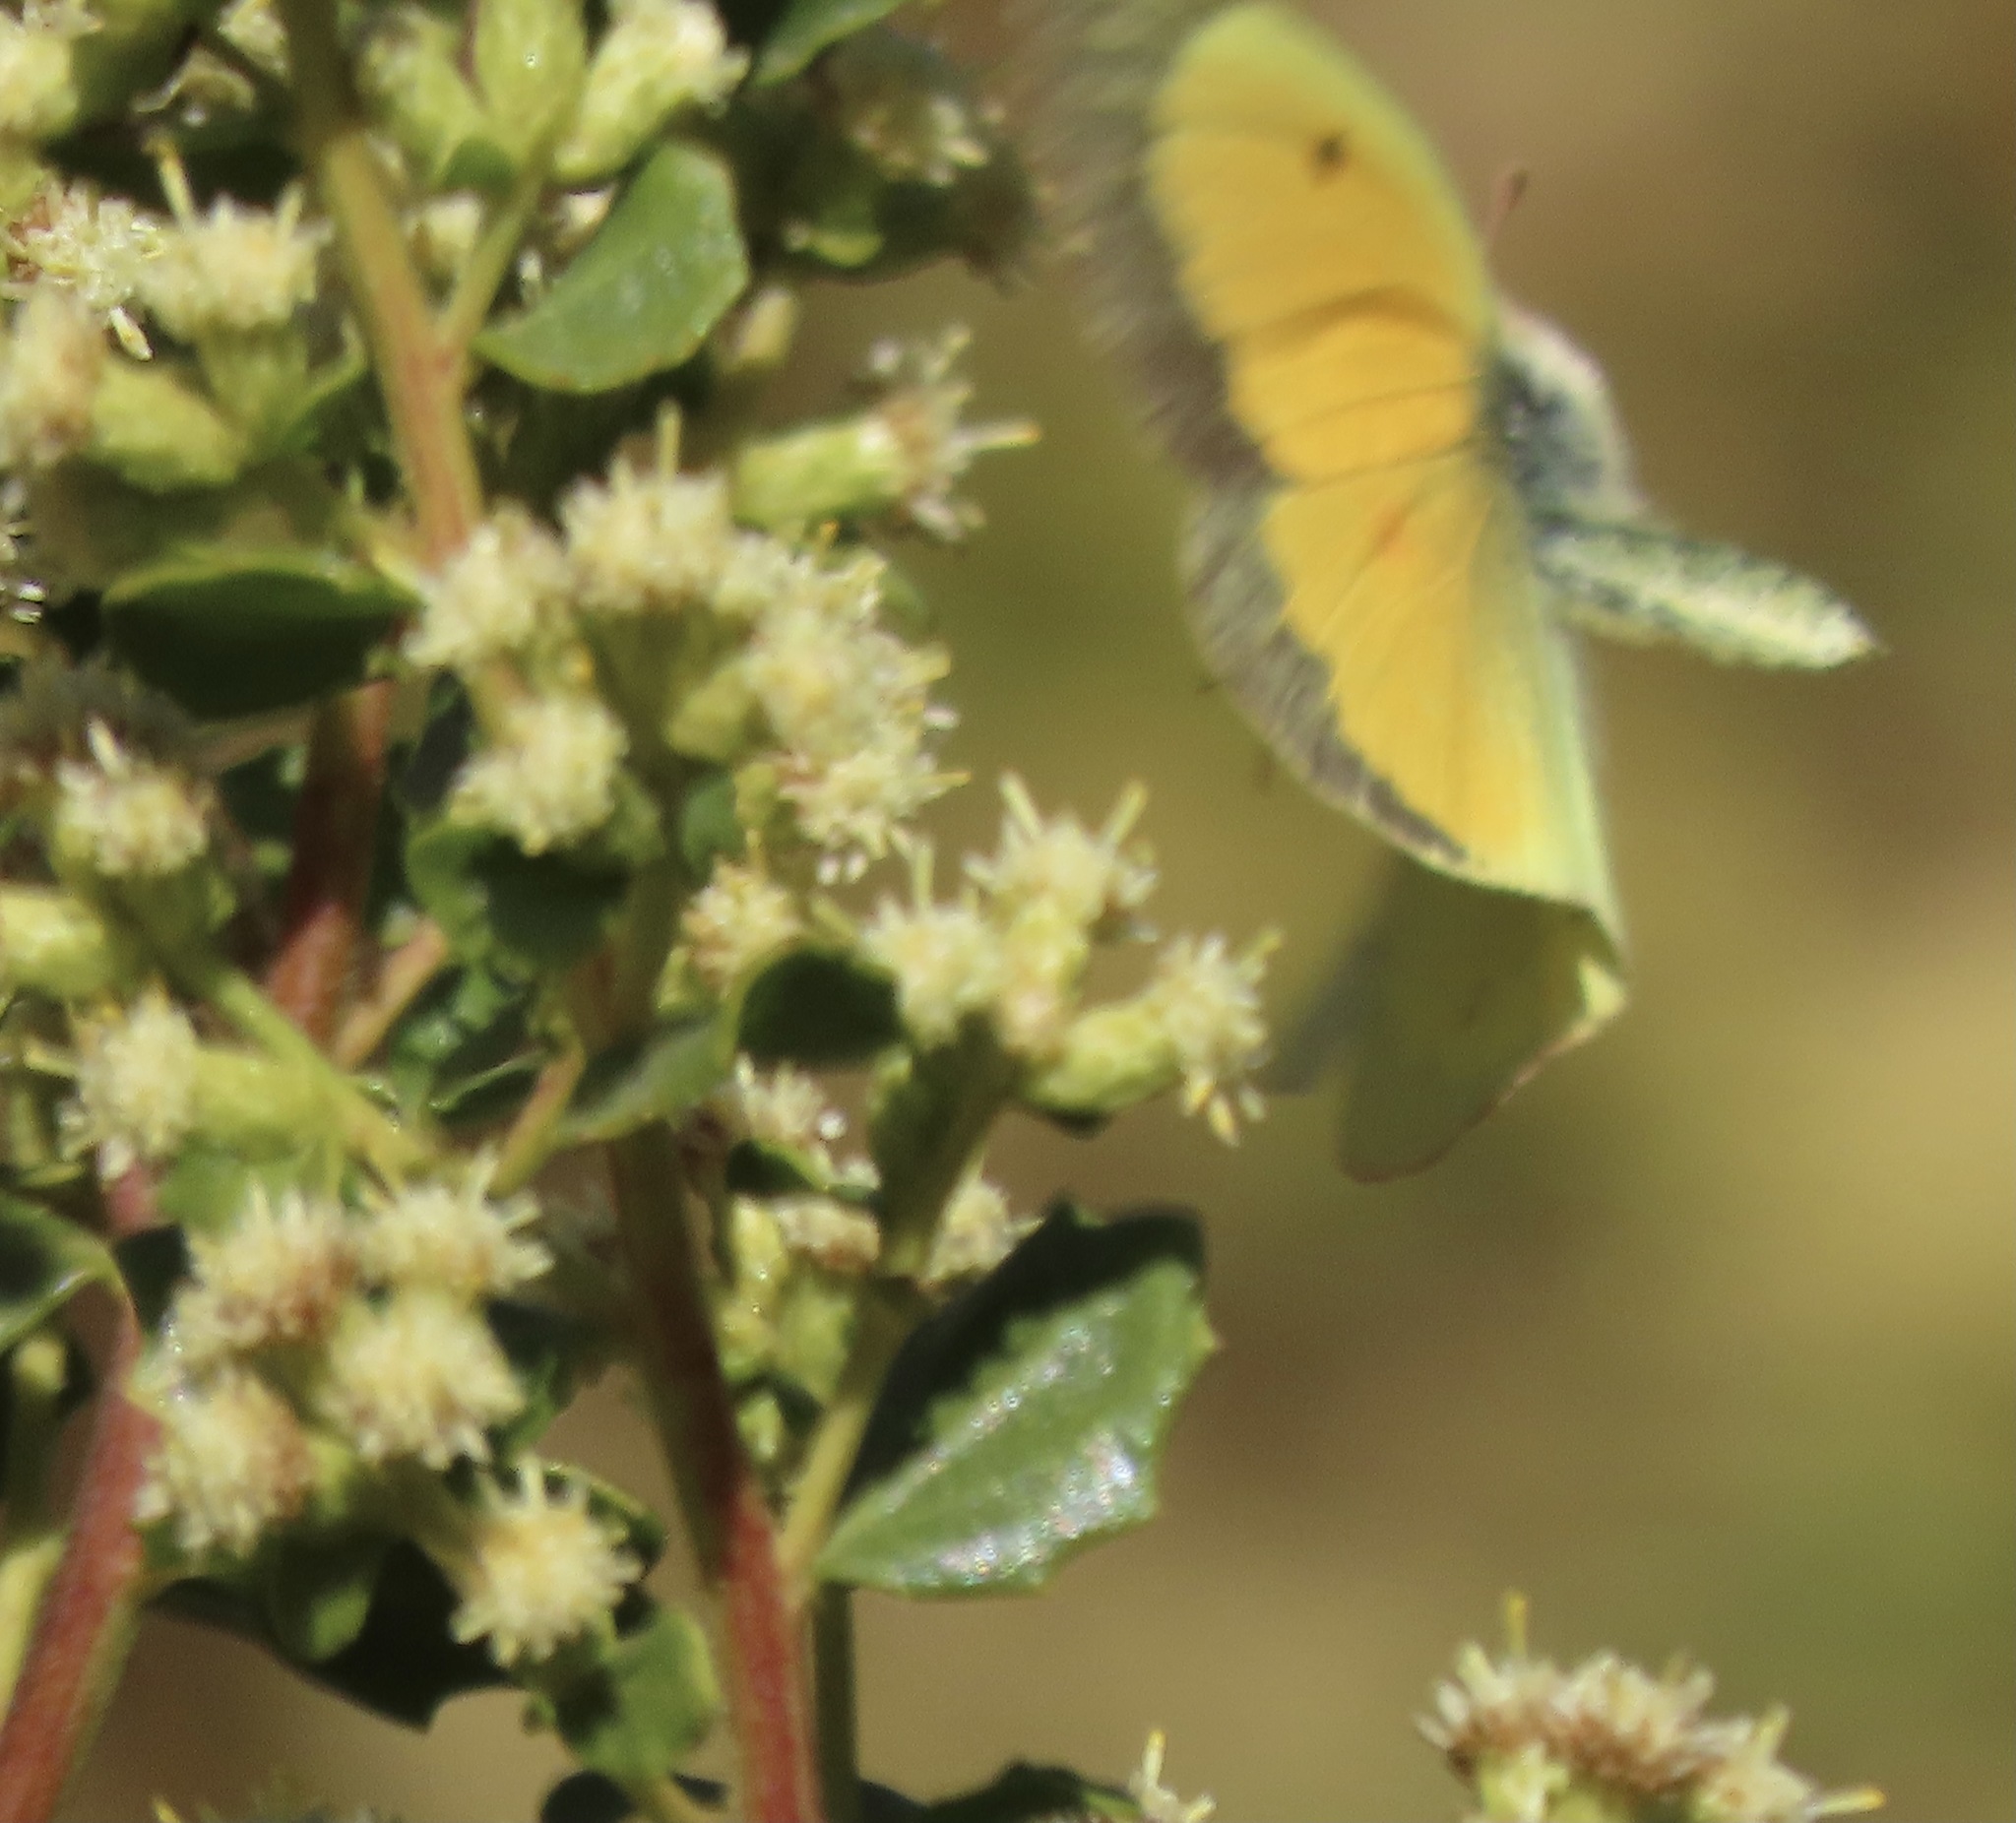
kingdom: Animalia
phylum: Arthropoda
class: Insecta
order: Lepidoptera
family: Pieridae
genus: Colias
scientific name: Colias eurytheme
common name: Alfalfa butterfly
